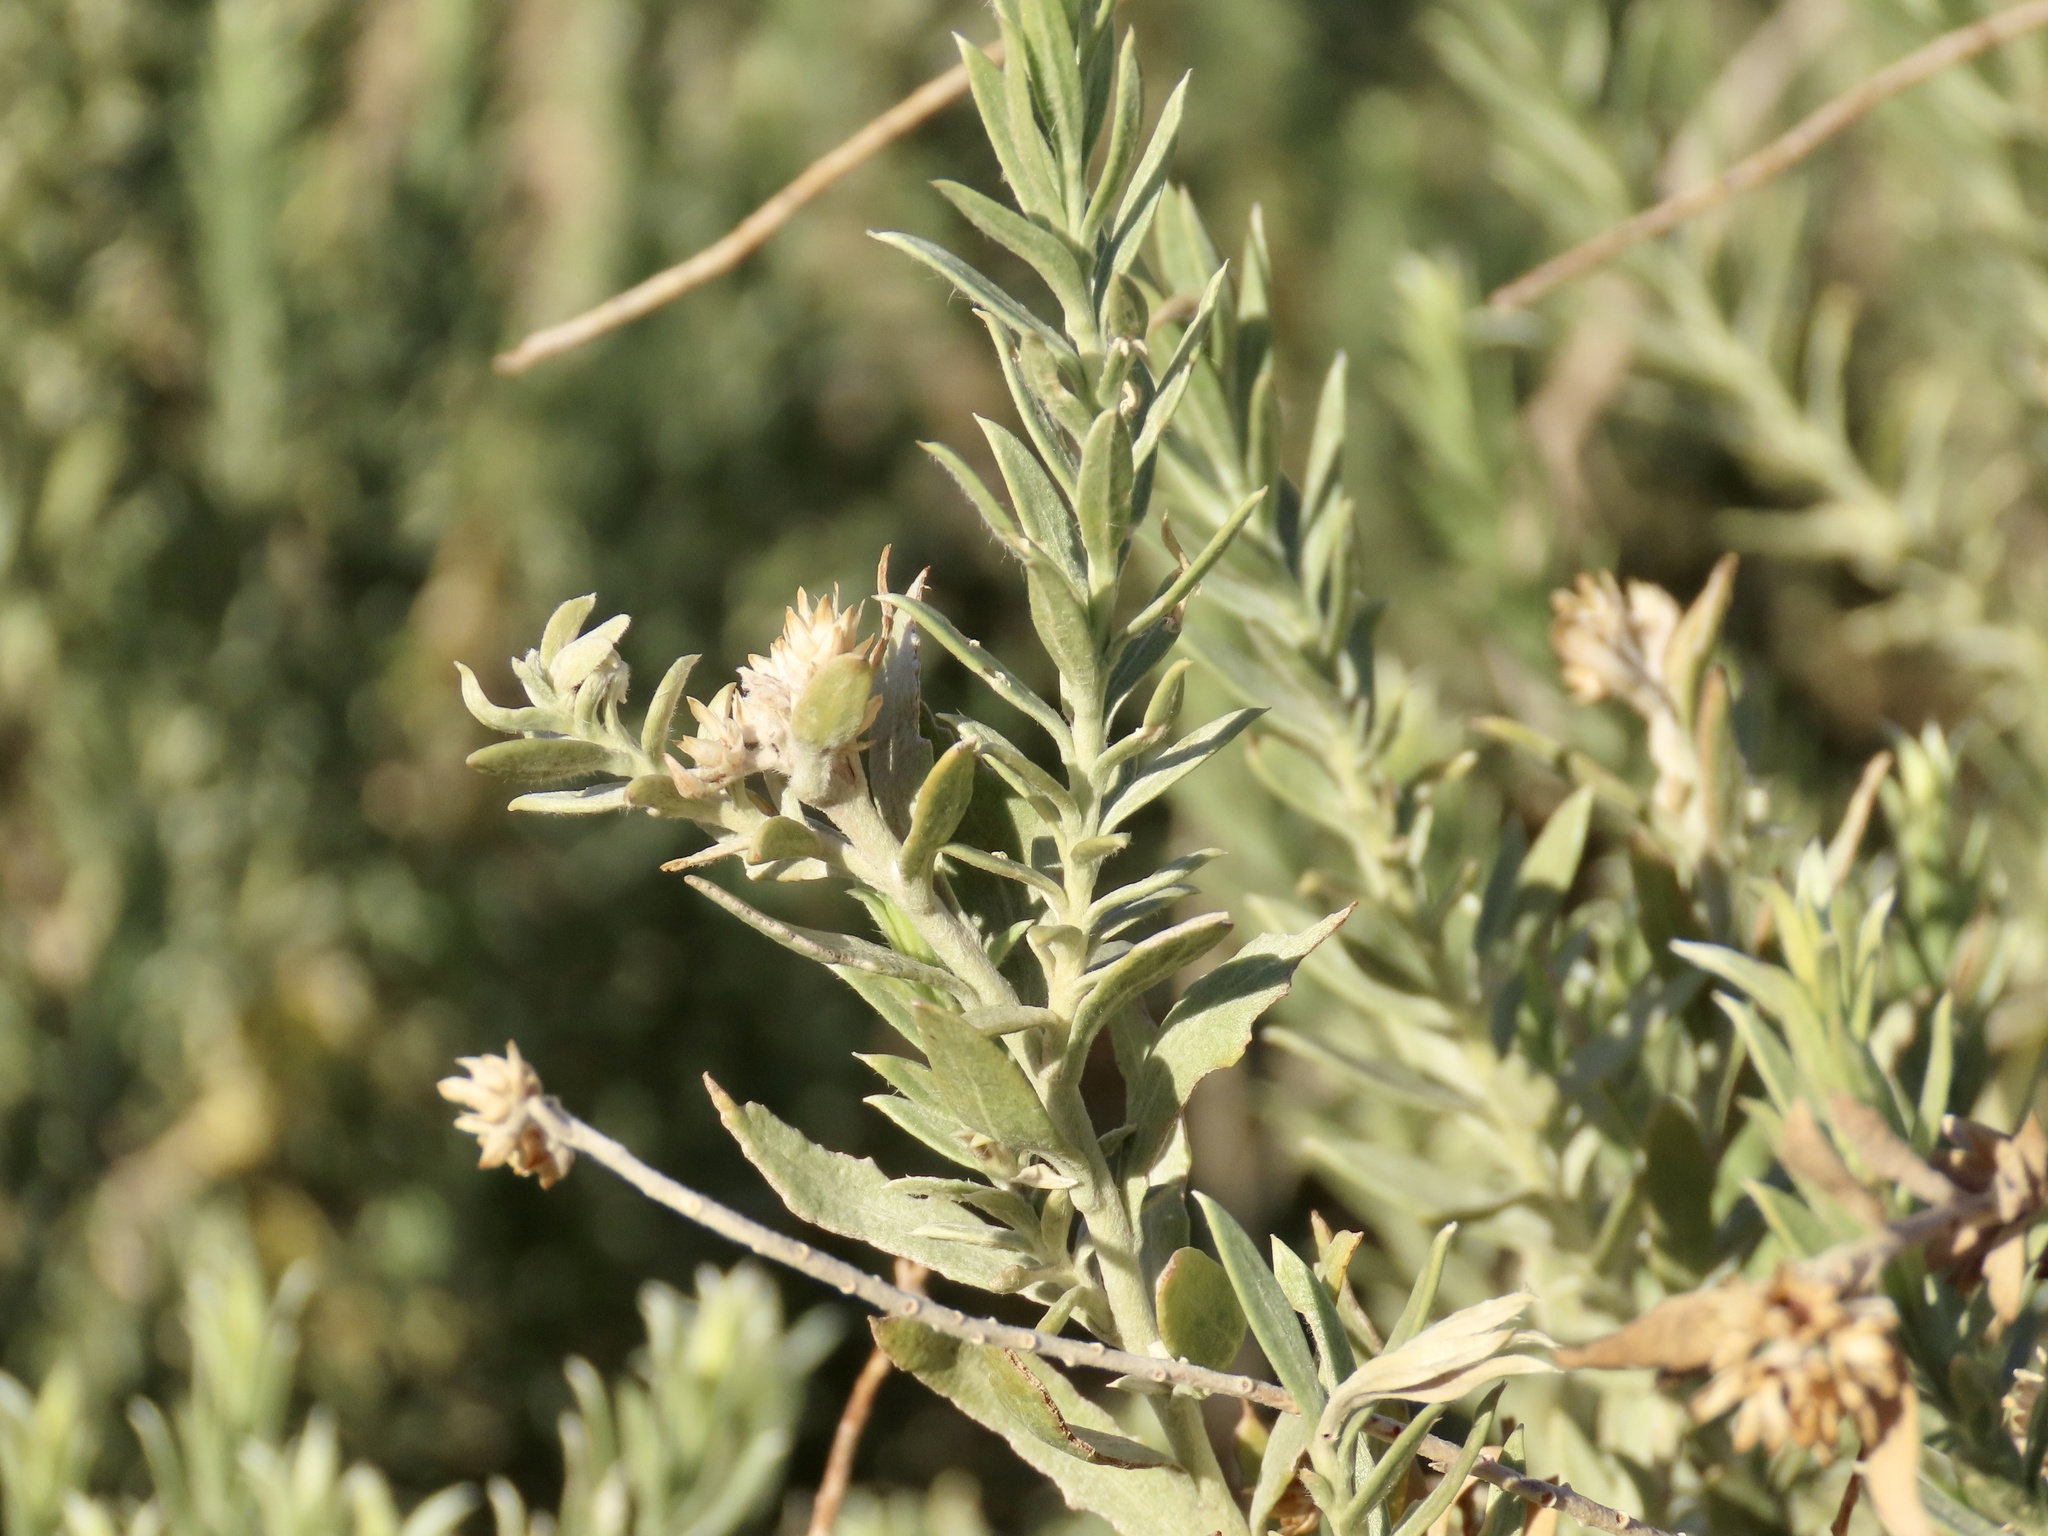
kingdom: Plantae
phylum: Tracheophyta
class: Magnoliopsida
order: Asterales
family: Asteraceae
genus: Pluchea
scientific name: Pluchea sericea
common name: Arrow-weed
